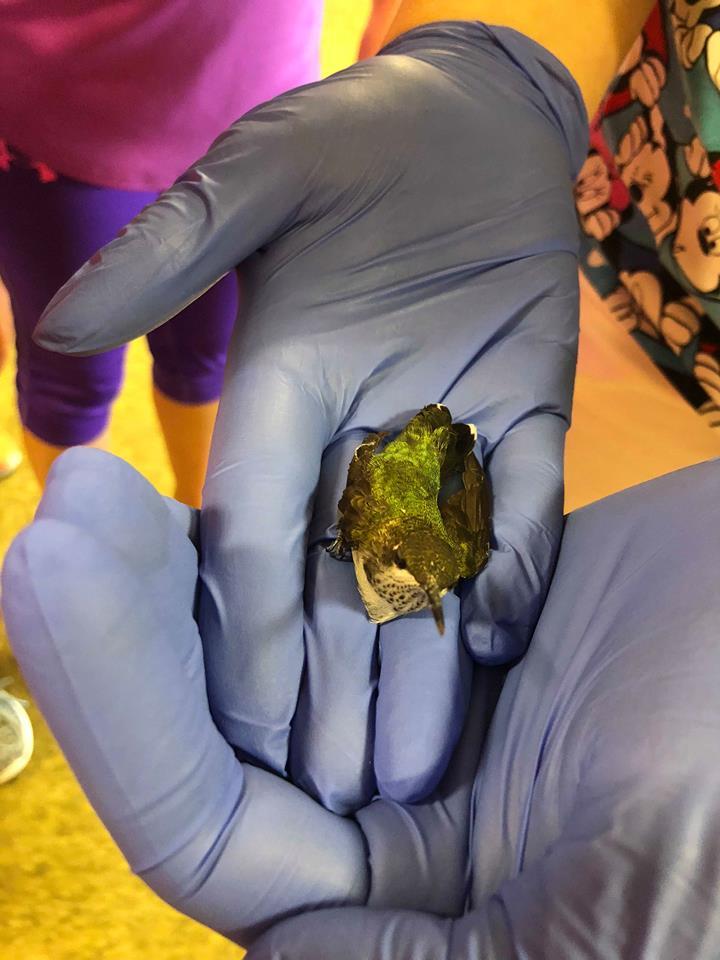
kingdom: Animalia
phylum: Chordata
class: Aves
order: Apodiformes
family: Trochilidae
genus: Archilochus
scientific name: Archilochus colubris
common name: Ruby-throated hummingbird
